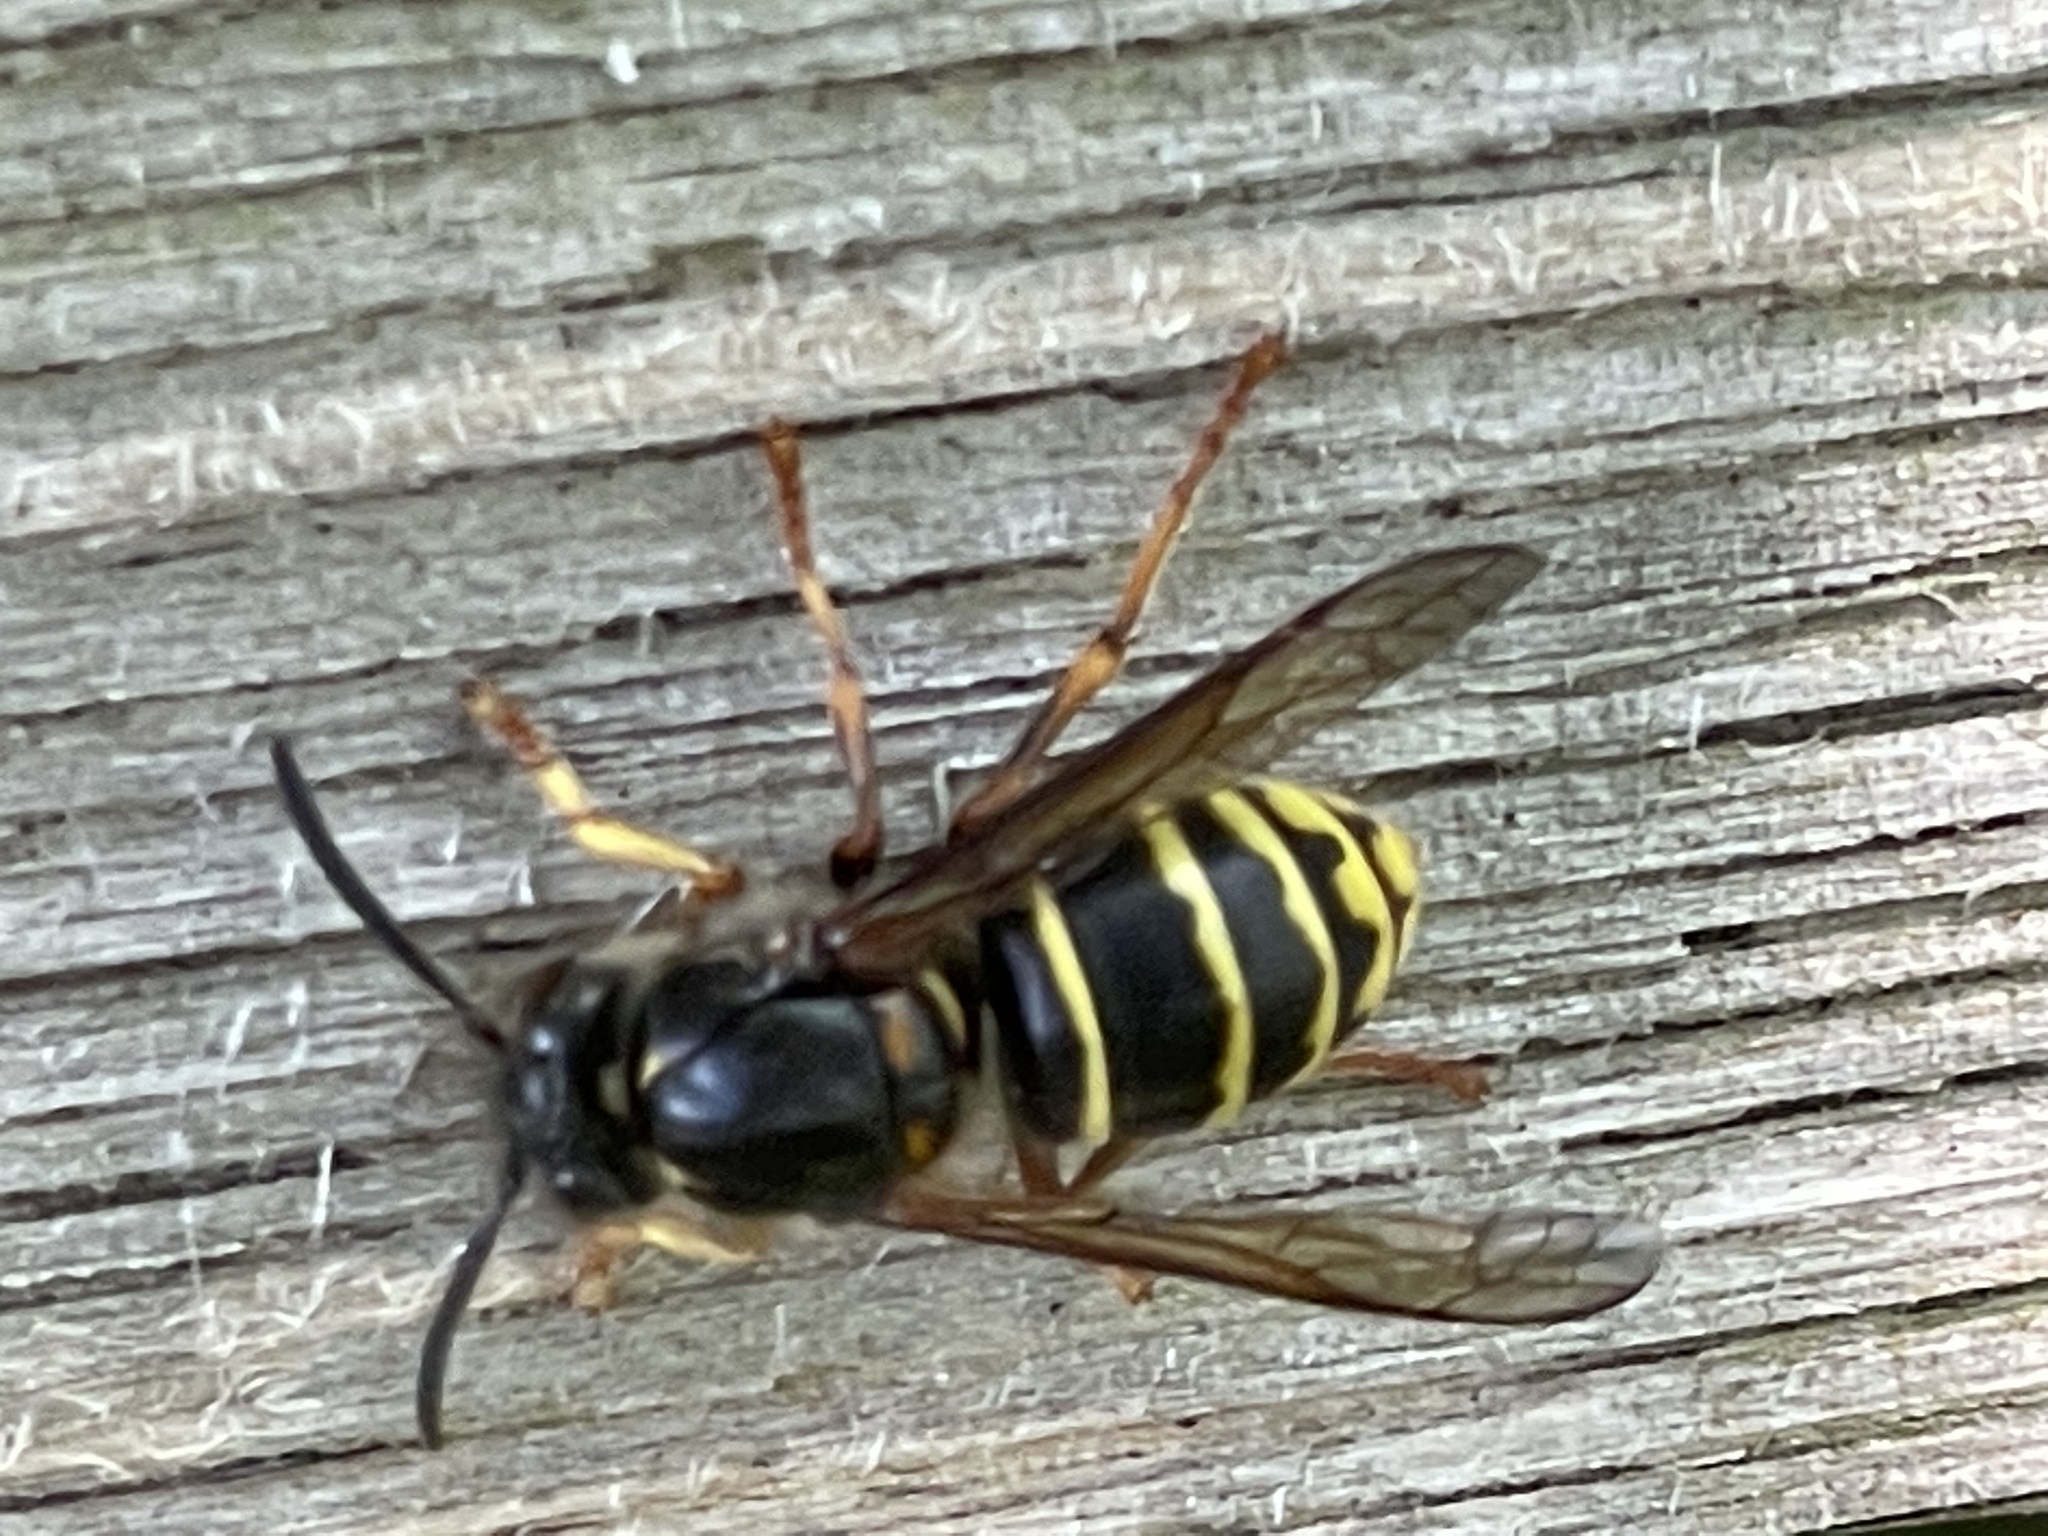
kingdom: Animalia
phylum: Arthropoda
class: Insecta
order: Hymenoptera
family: Vespidae
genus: Dolichovespula
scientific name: Dolichovespula media
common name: Median wasp
